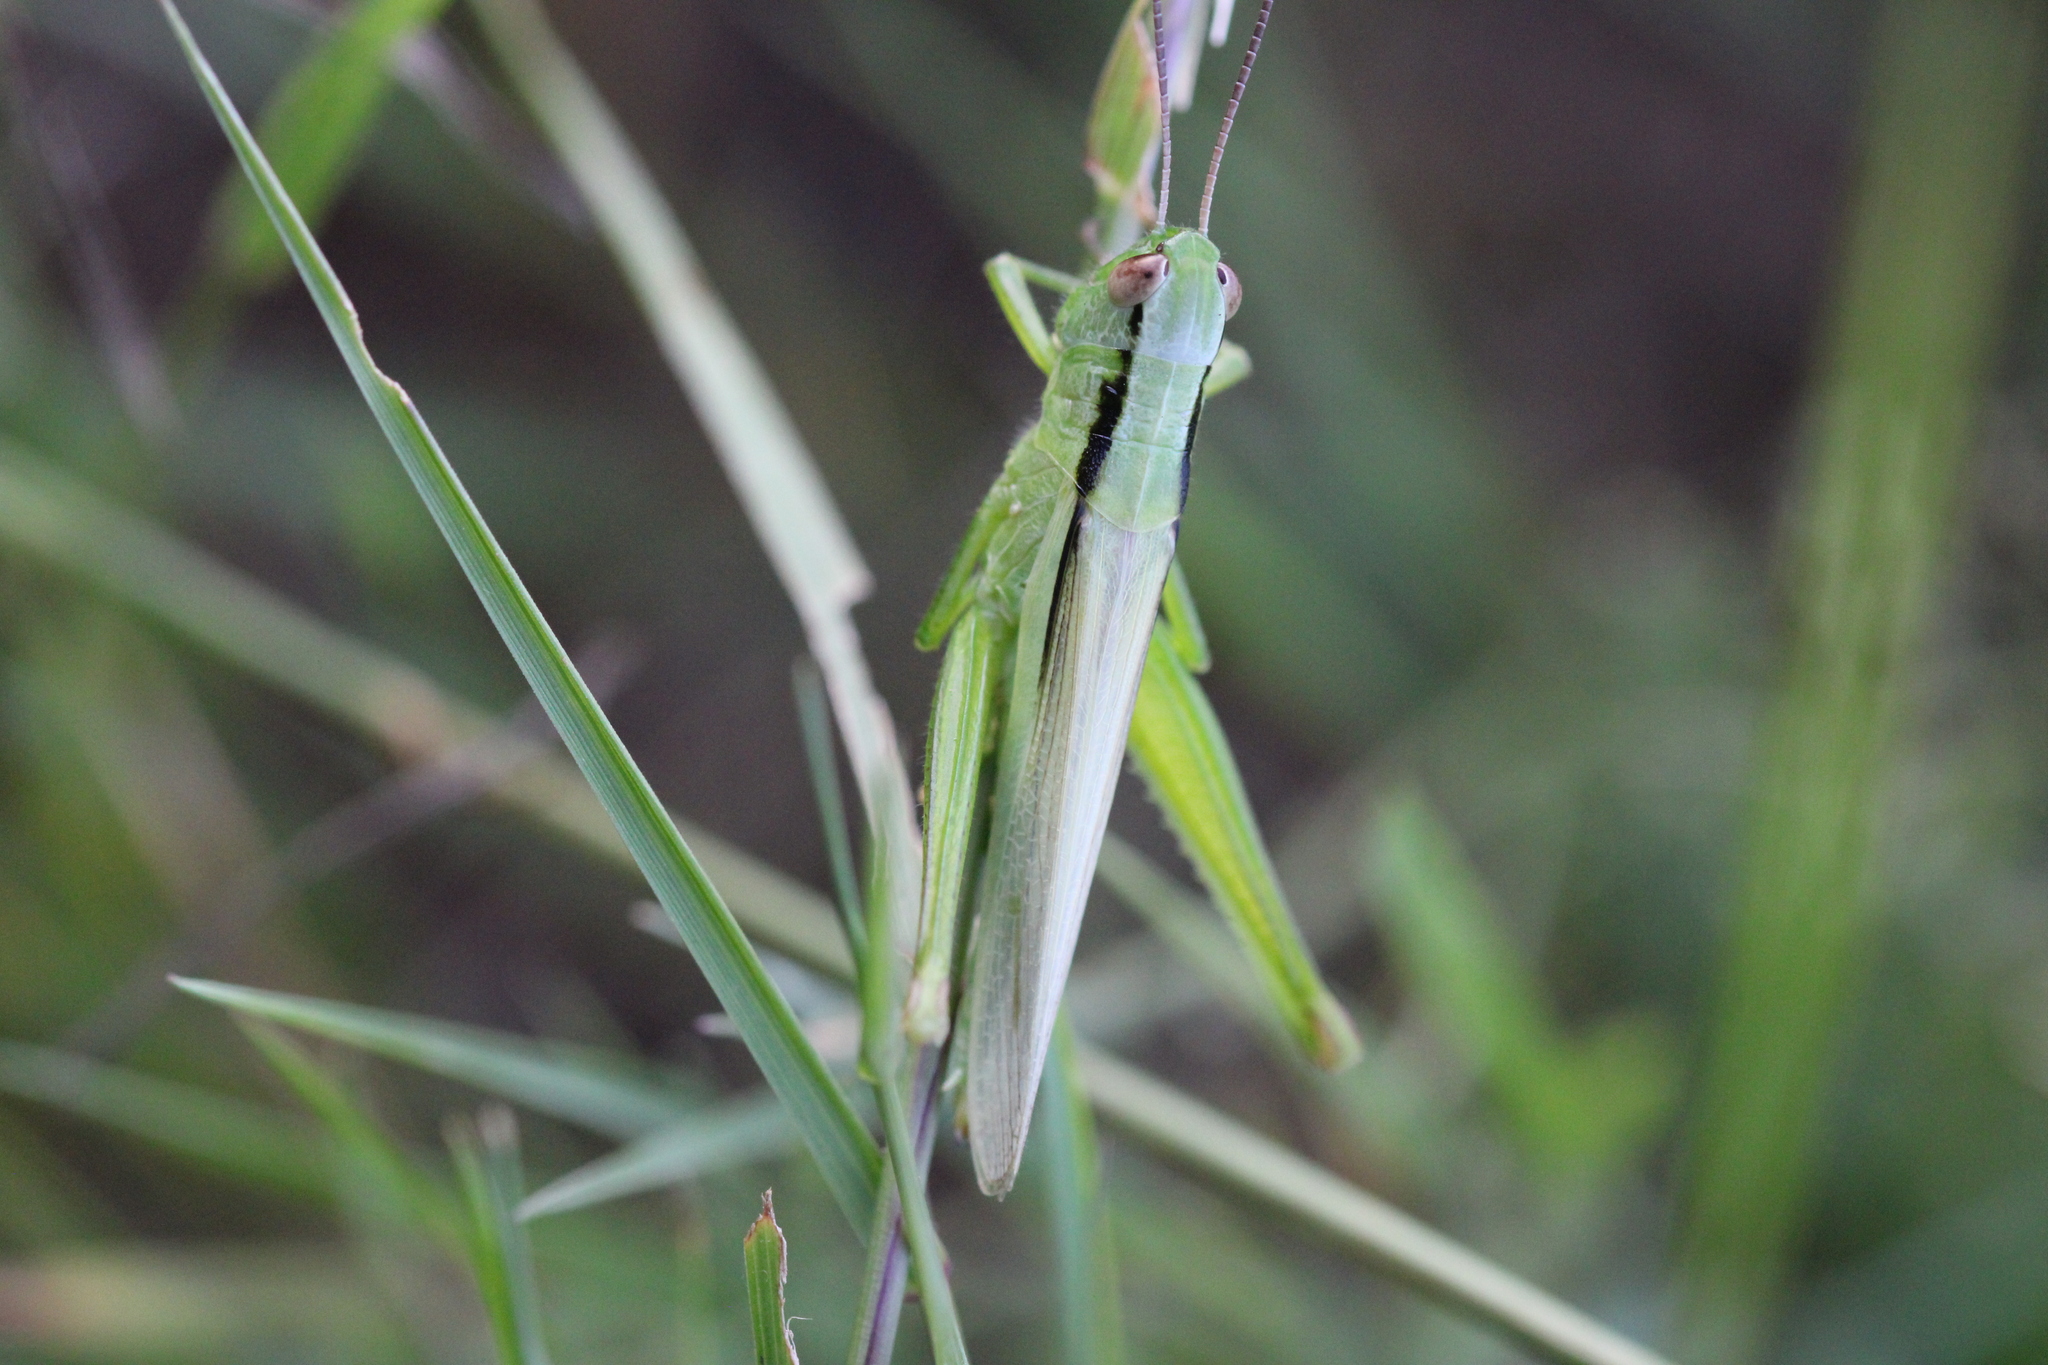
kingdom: Animalia
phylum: Arthropoda
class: Insecta
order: Orthoptera
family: Acrididae
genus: Mecostethus
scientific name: Mecostethus parapleurus
